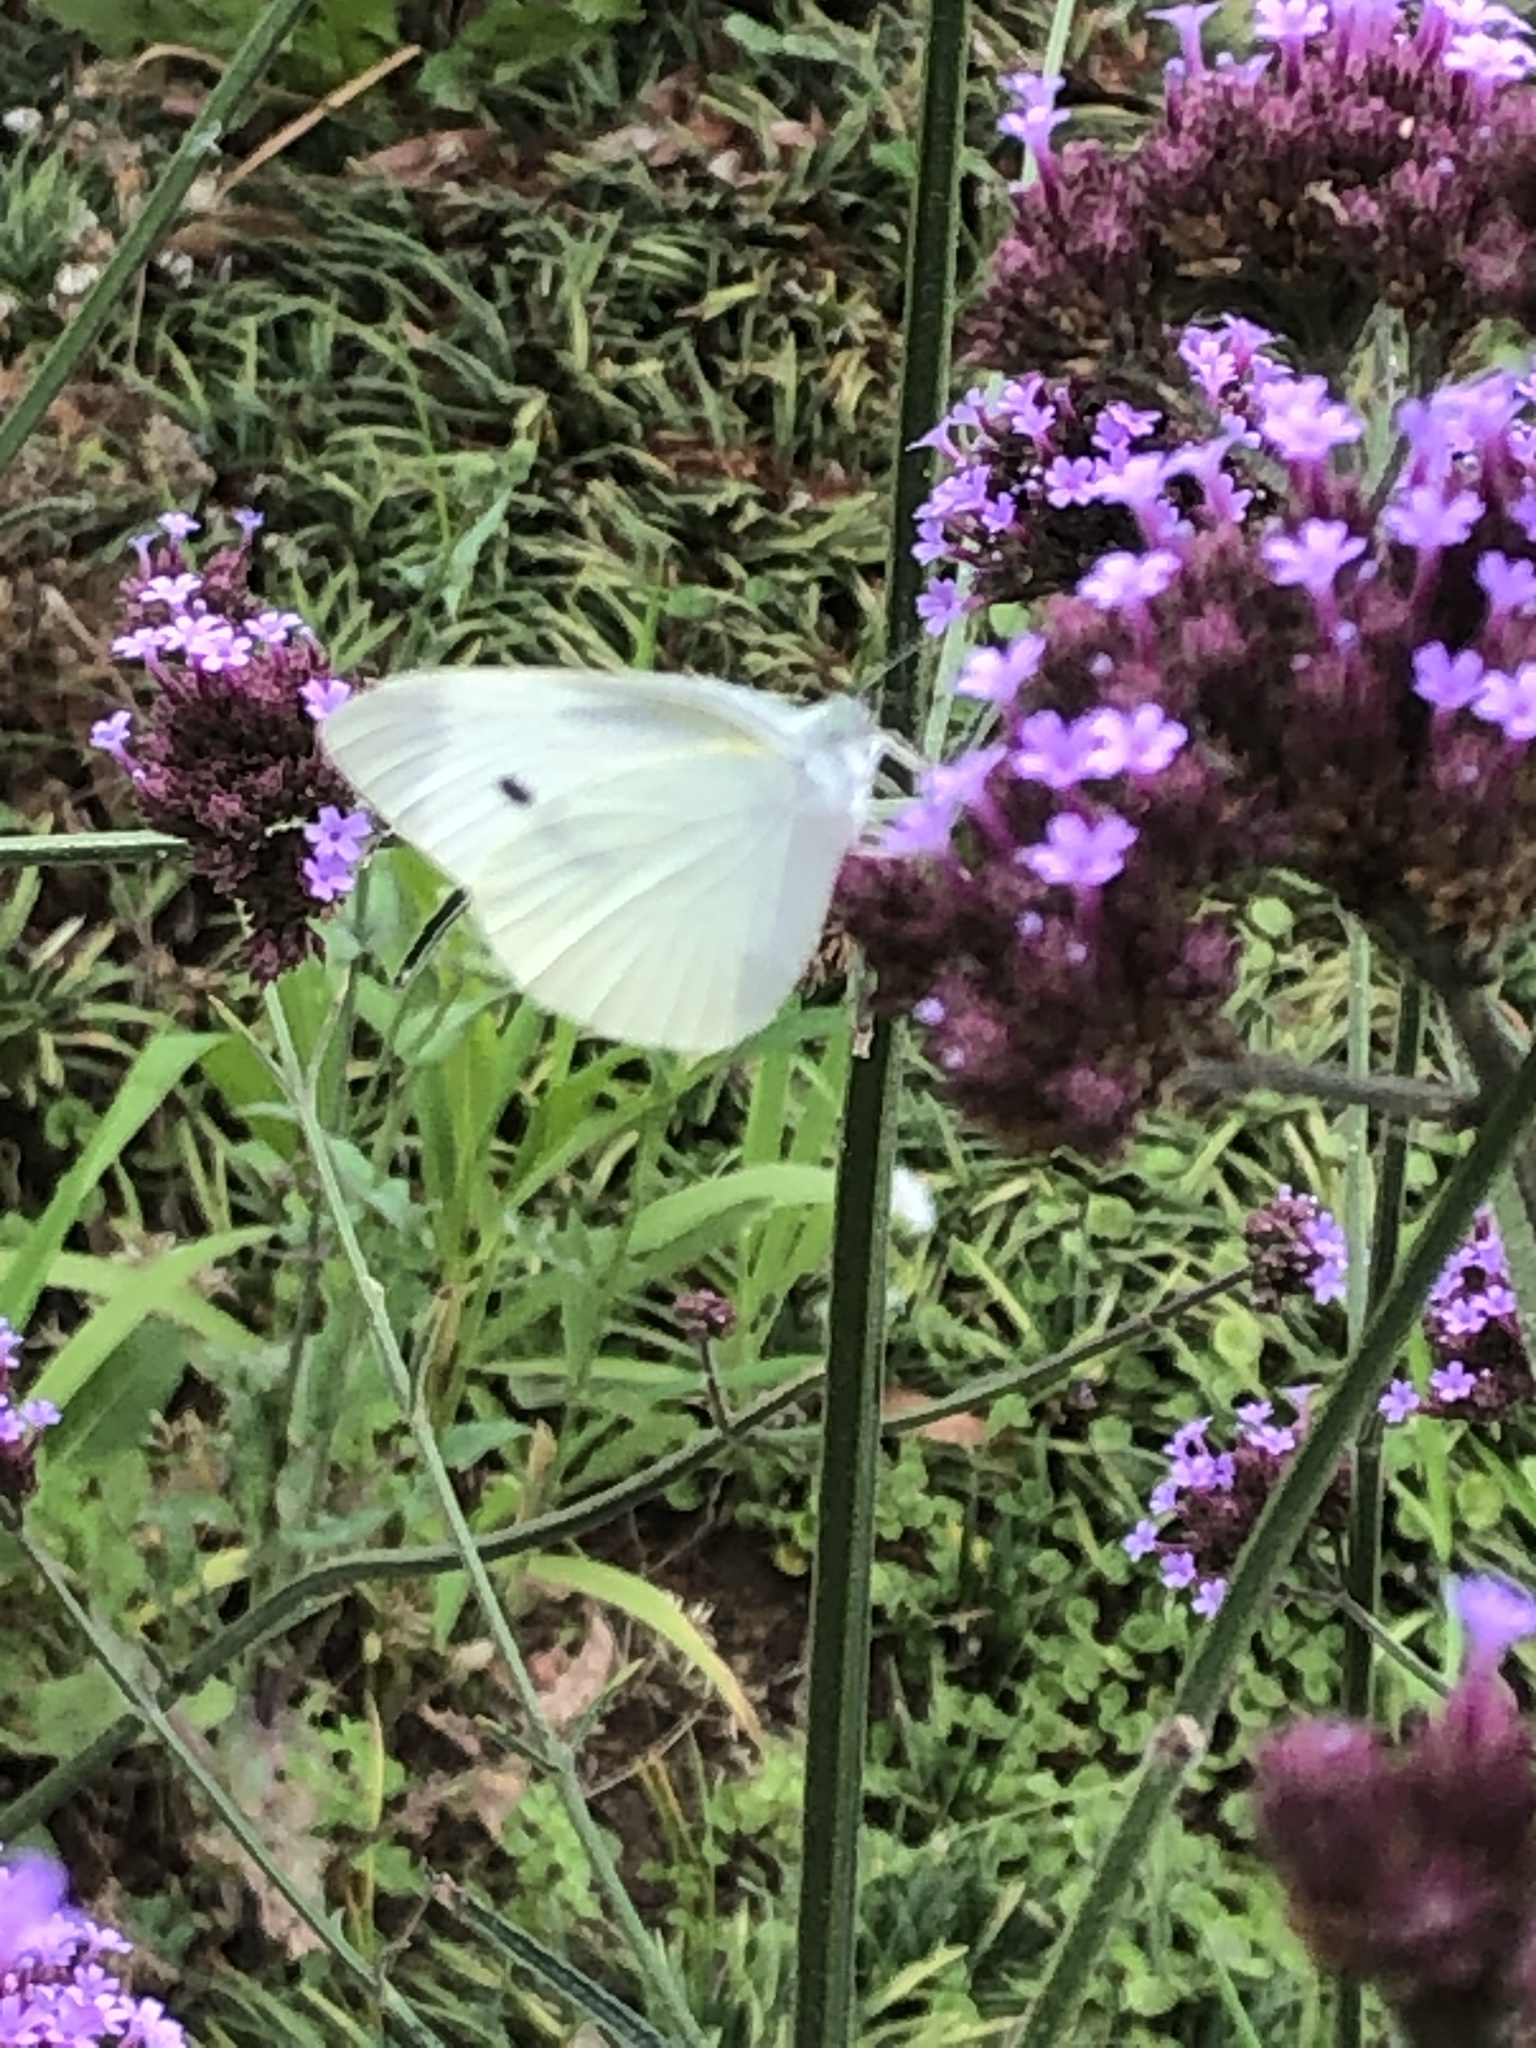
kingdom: Animalia
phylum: Arthropoda
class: Insecta
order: Lepidoptera
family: Pieridae
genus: Pieris
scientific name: Pieris rapae
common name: Small white
